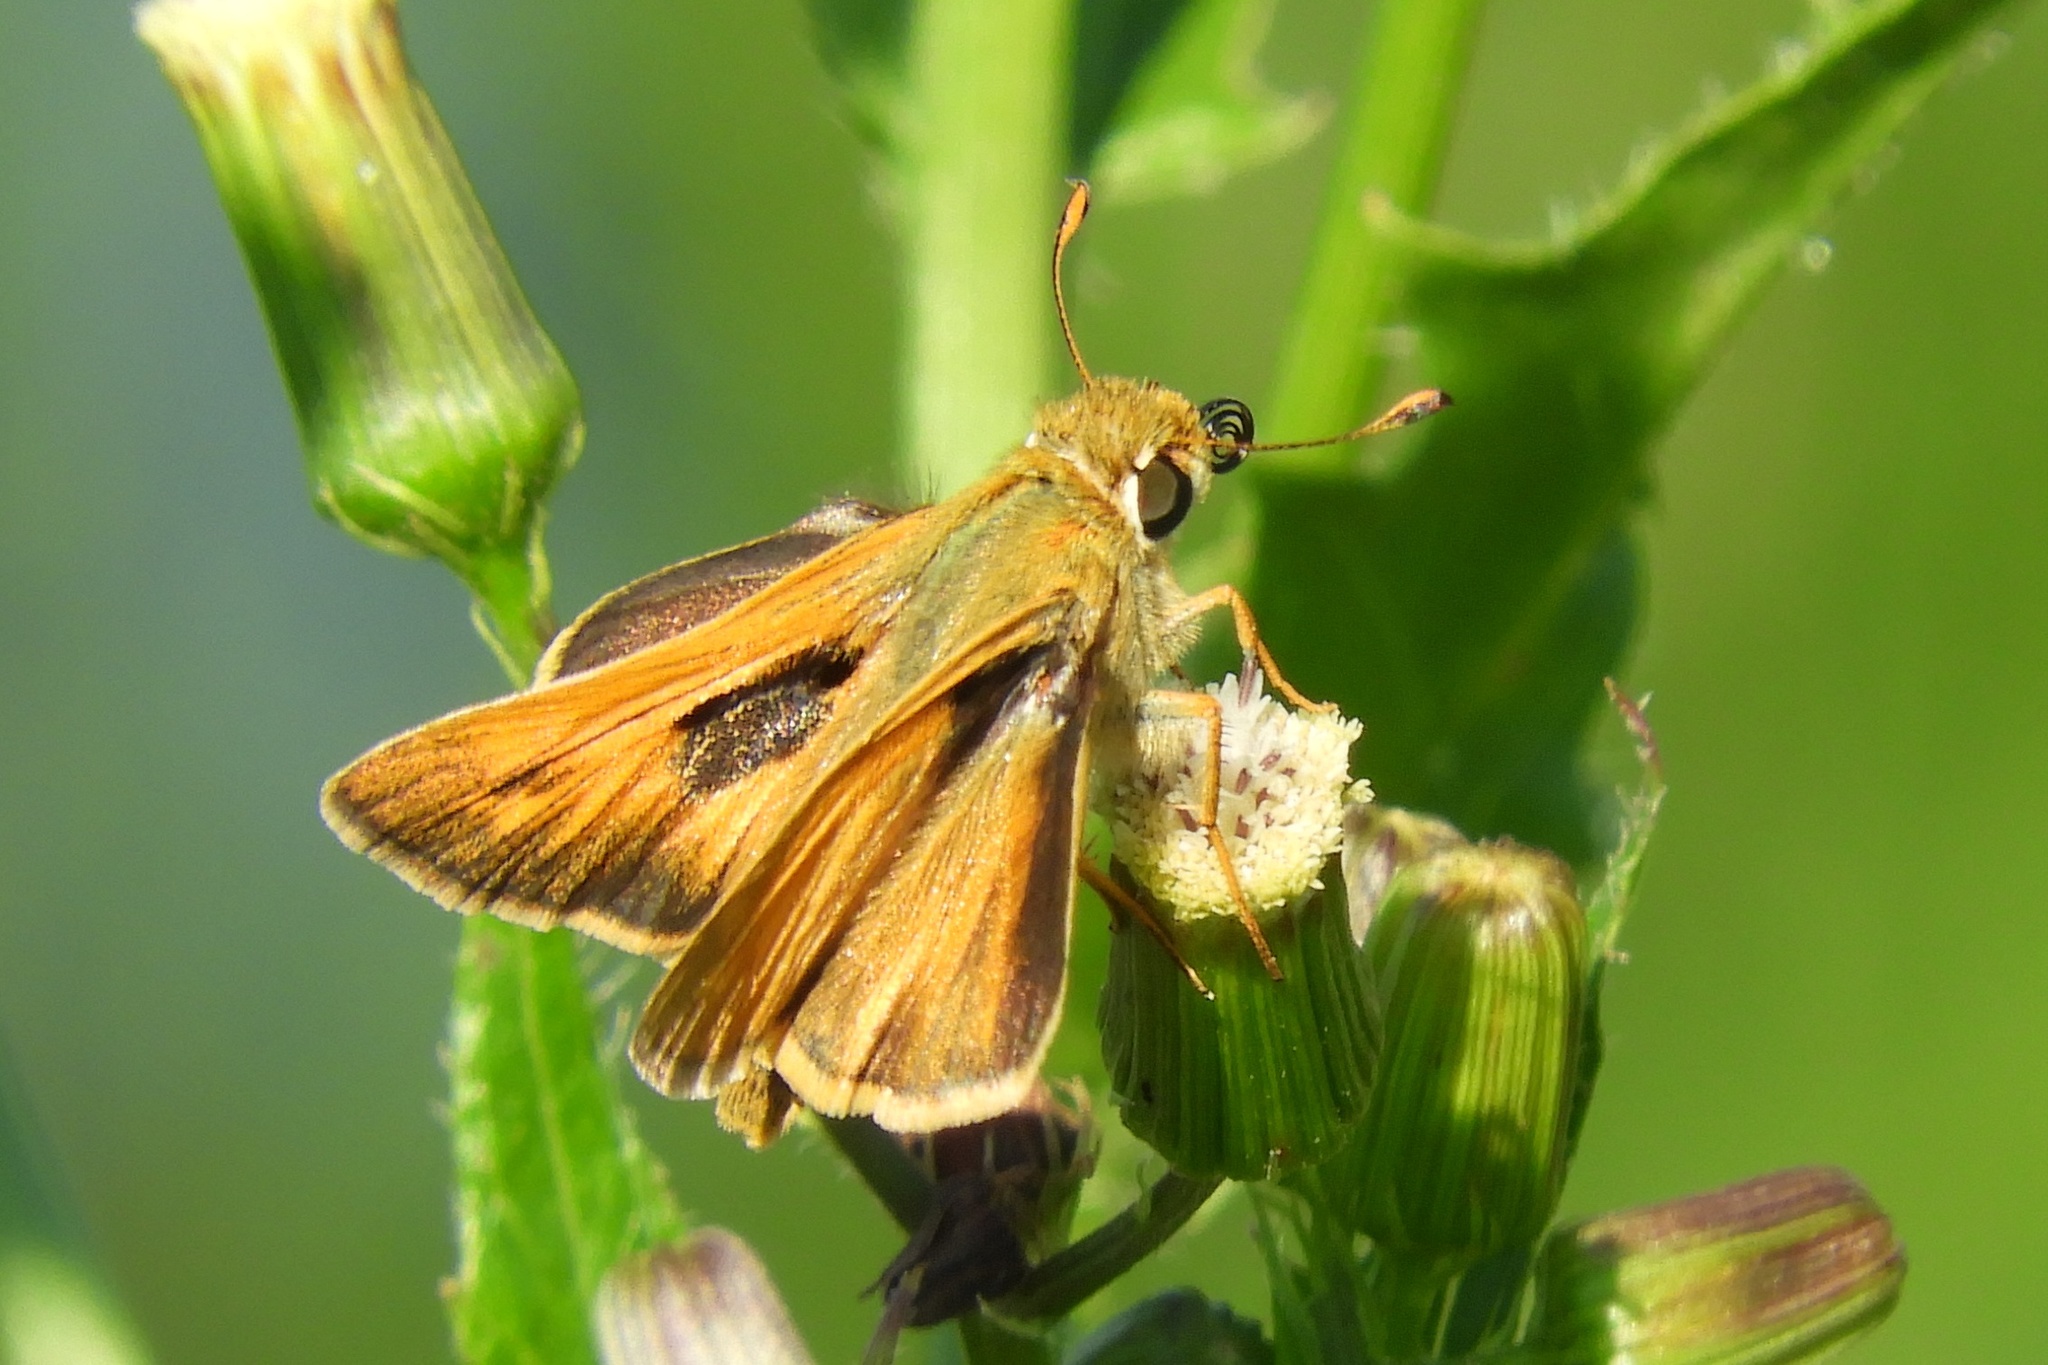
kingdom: Animalia
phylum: Arthropoda
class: Insecta
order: Lepidoptera
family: Hesperiidae
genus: Atalopedes
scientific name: Atalopedes
